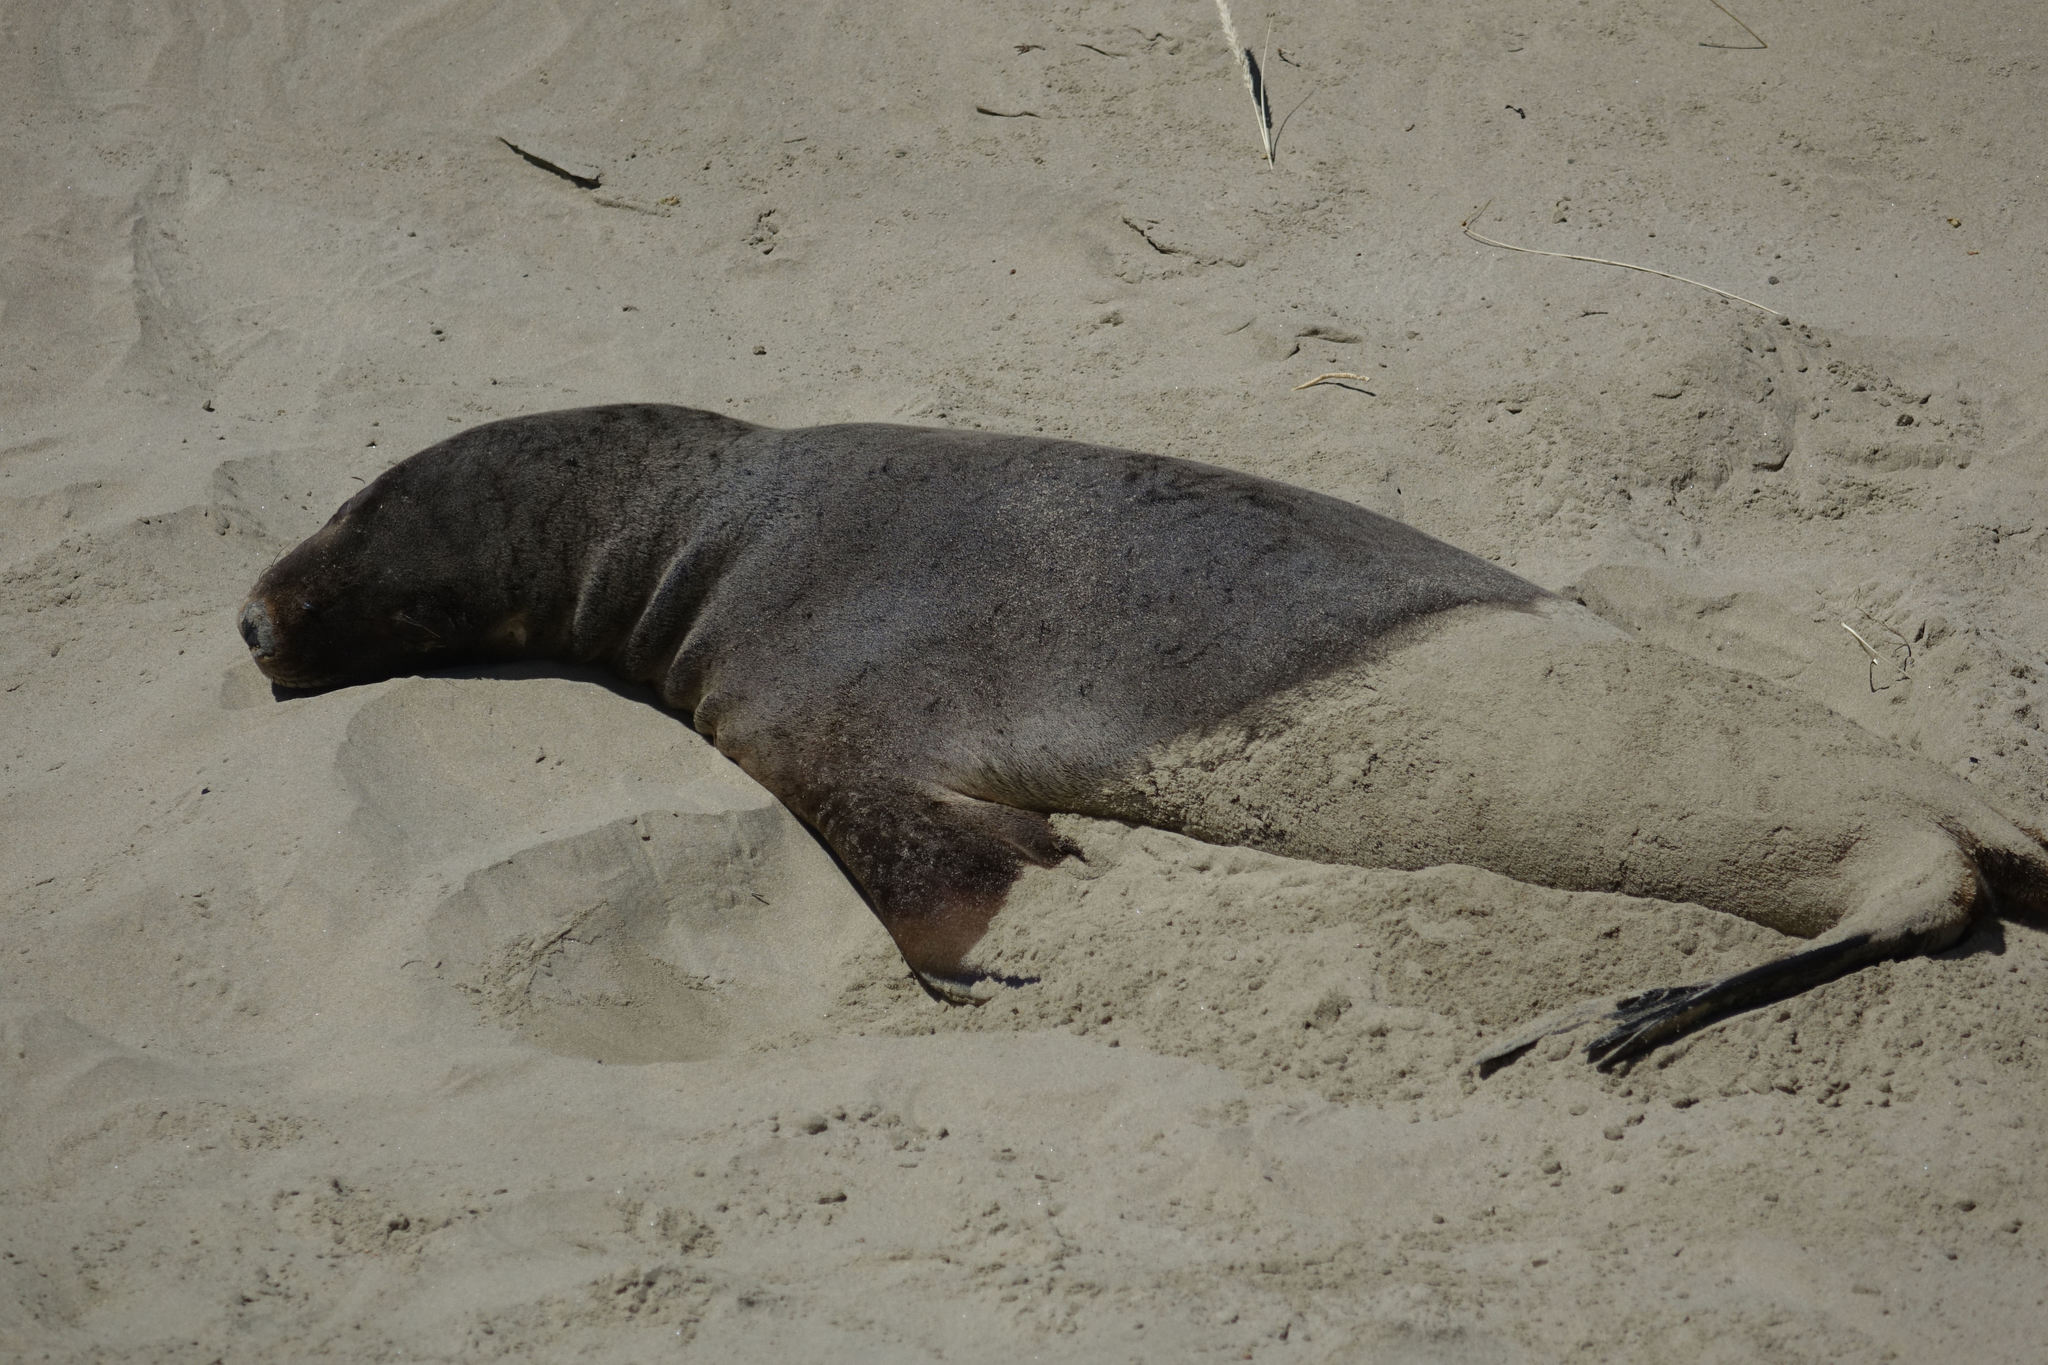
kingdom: Animalia
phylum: Chordata
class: Mammalia
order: Carnivora
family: Otariidae
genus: Phocarctos
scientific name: Phocarctos hookeri
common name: New zealand sea lion
